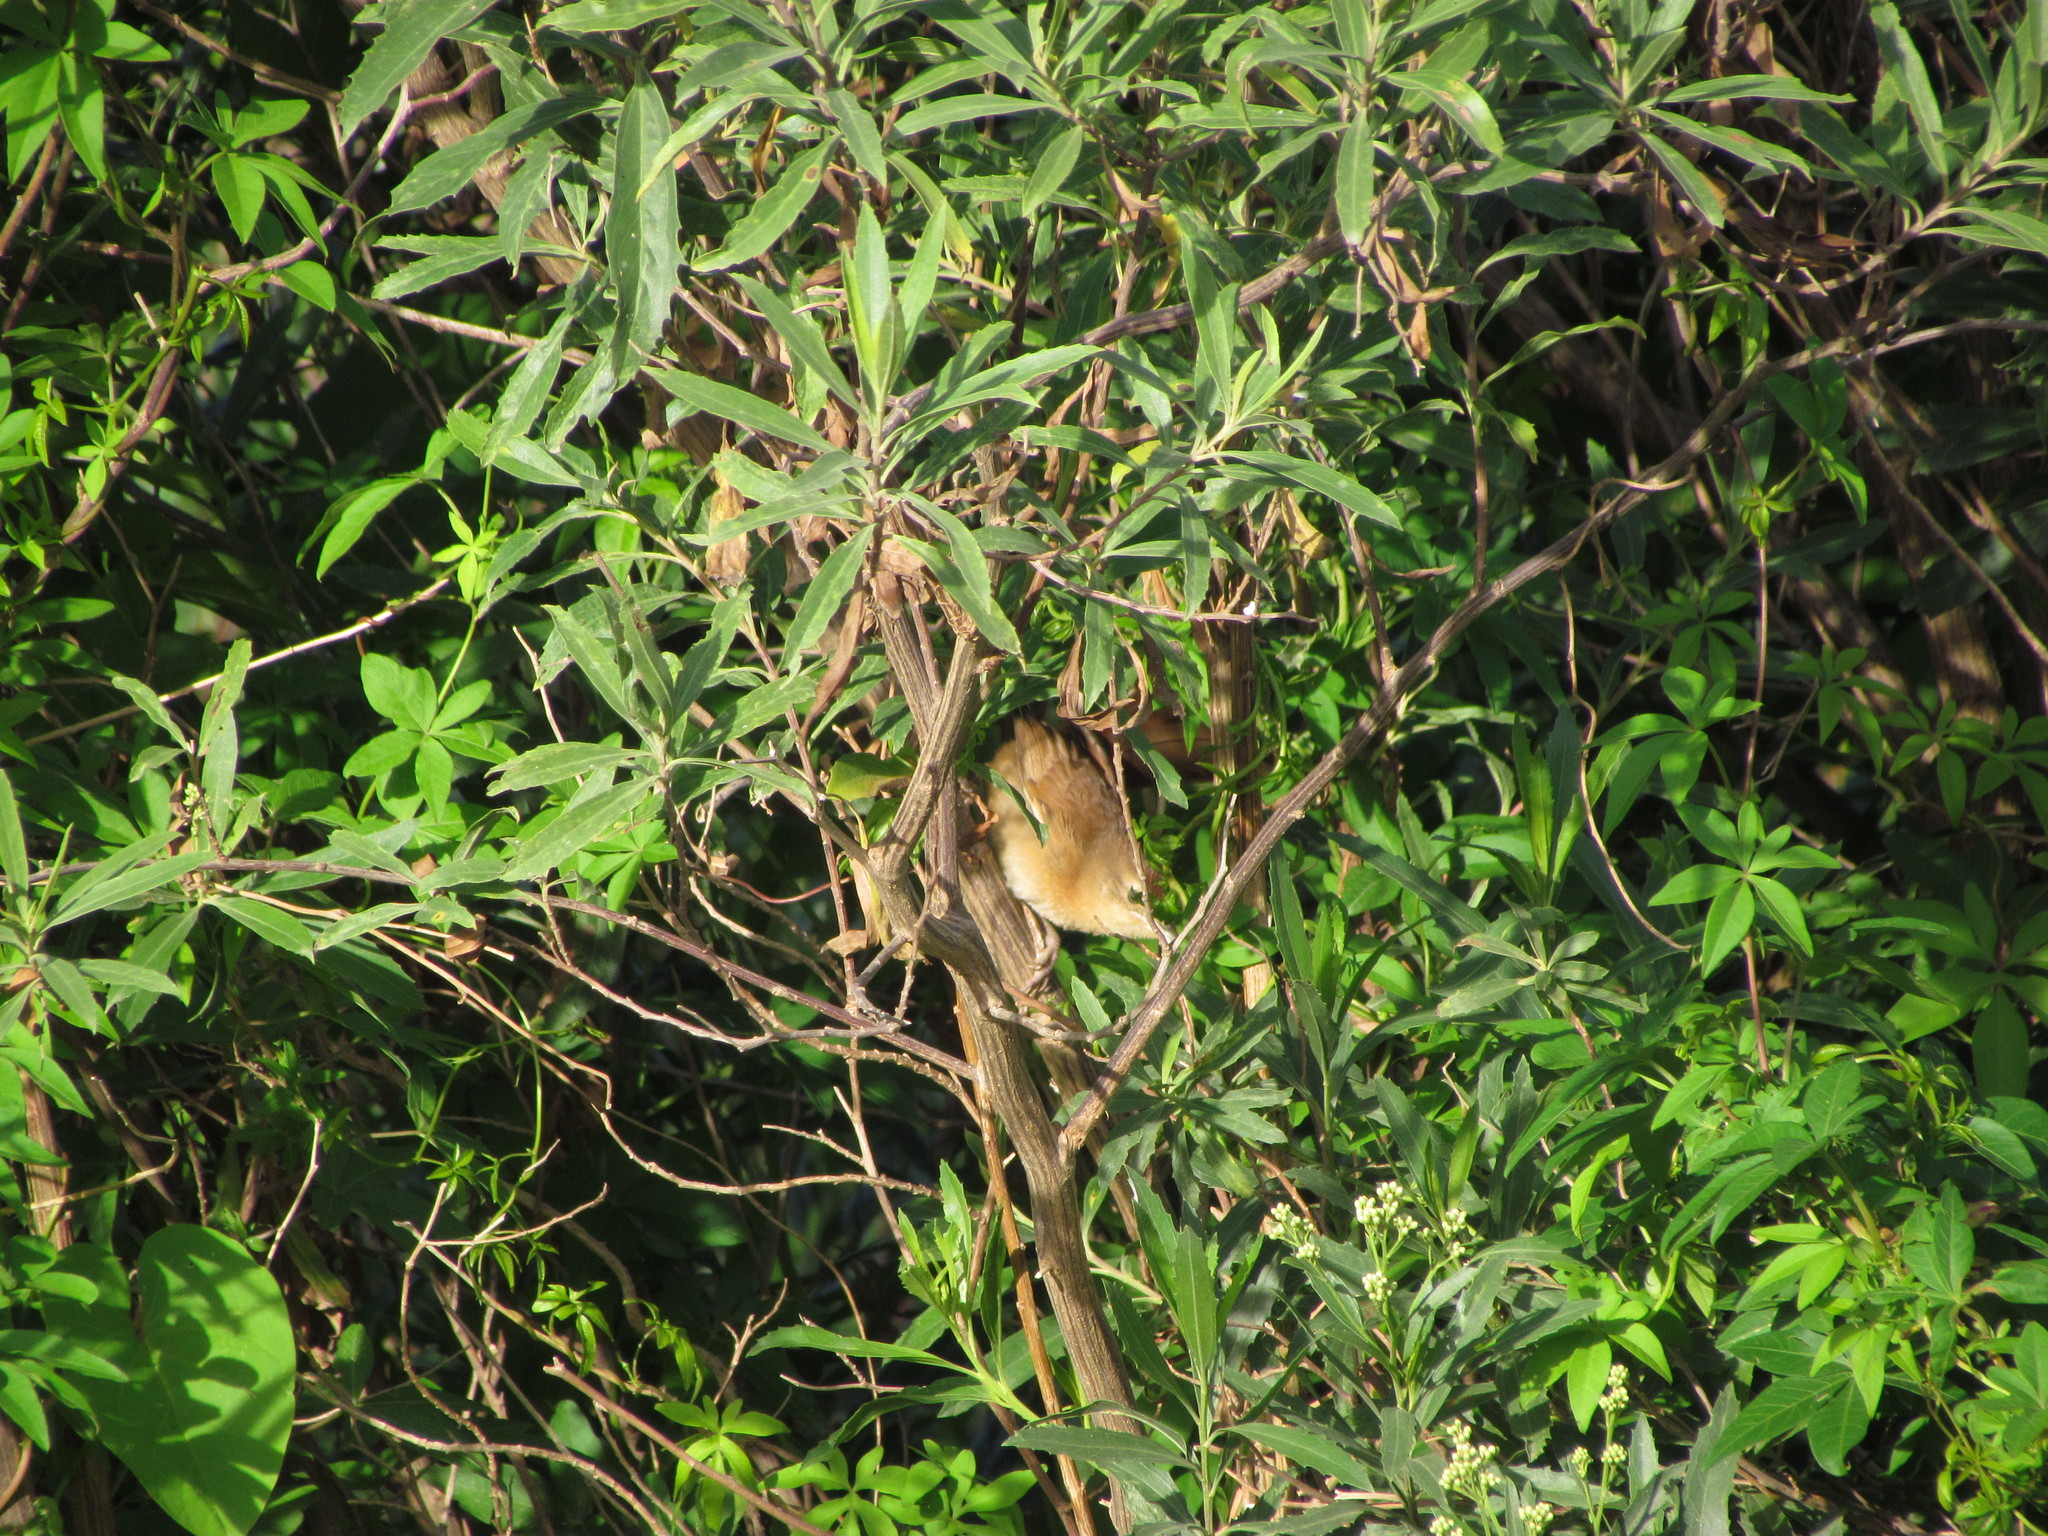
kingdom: Animalia
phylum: Chordata
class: Aves
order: Passeriformes
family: Furnariidae
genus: Phacellodomus
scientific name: Phacellodomus striaticollis
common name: Freckle-breasted thornbird
